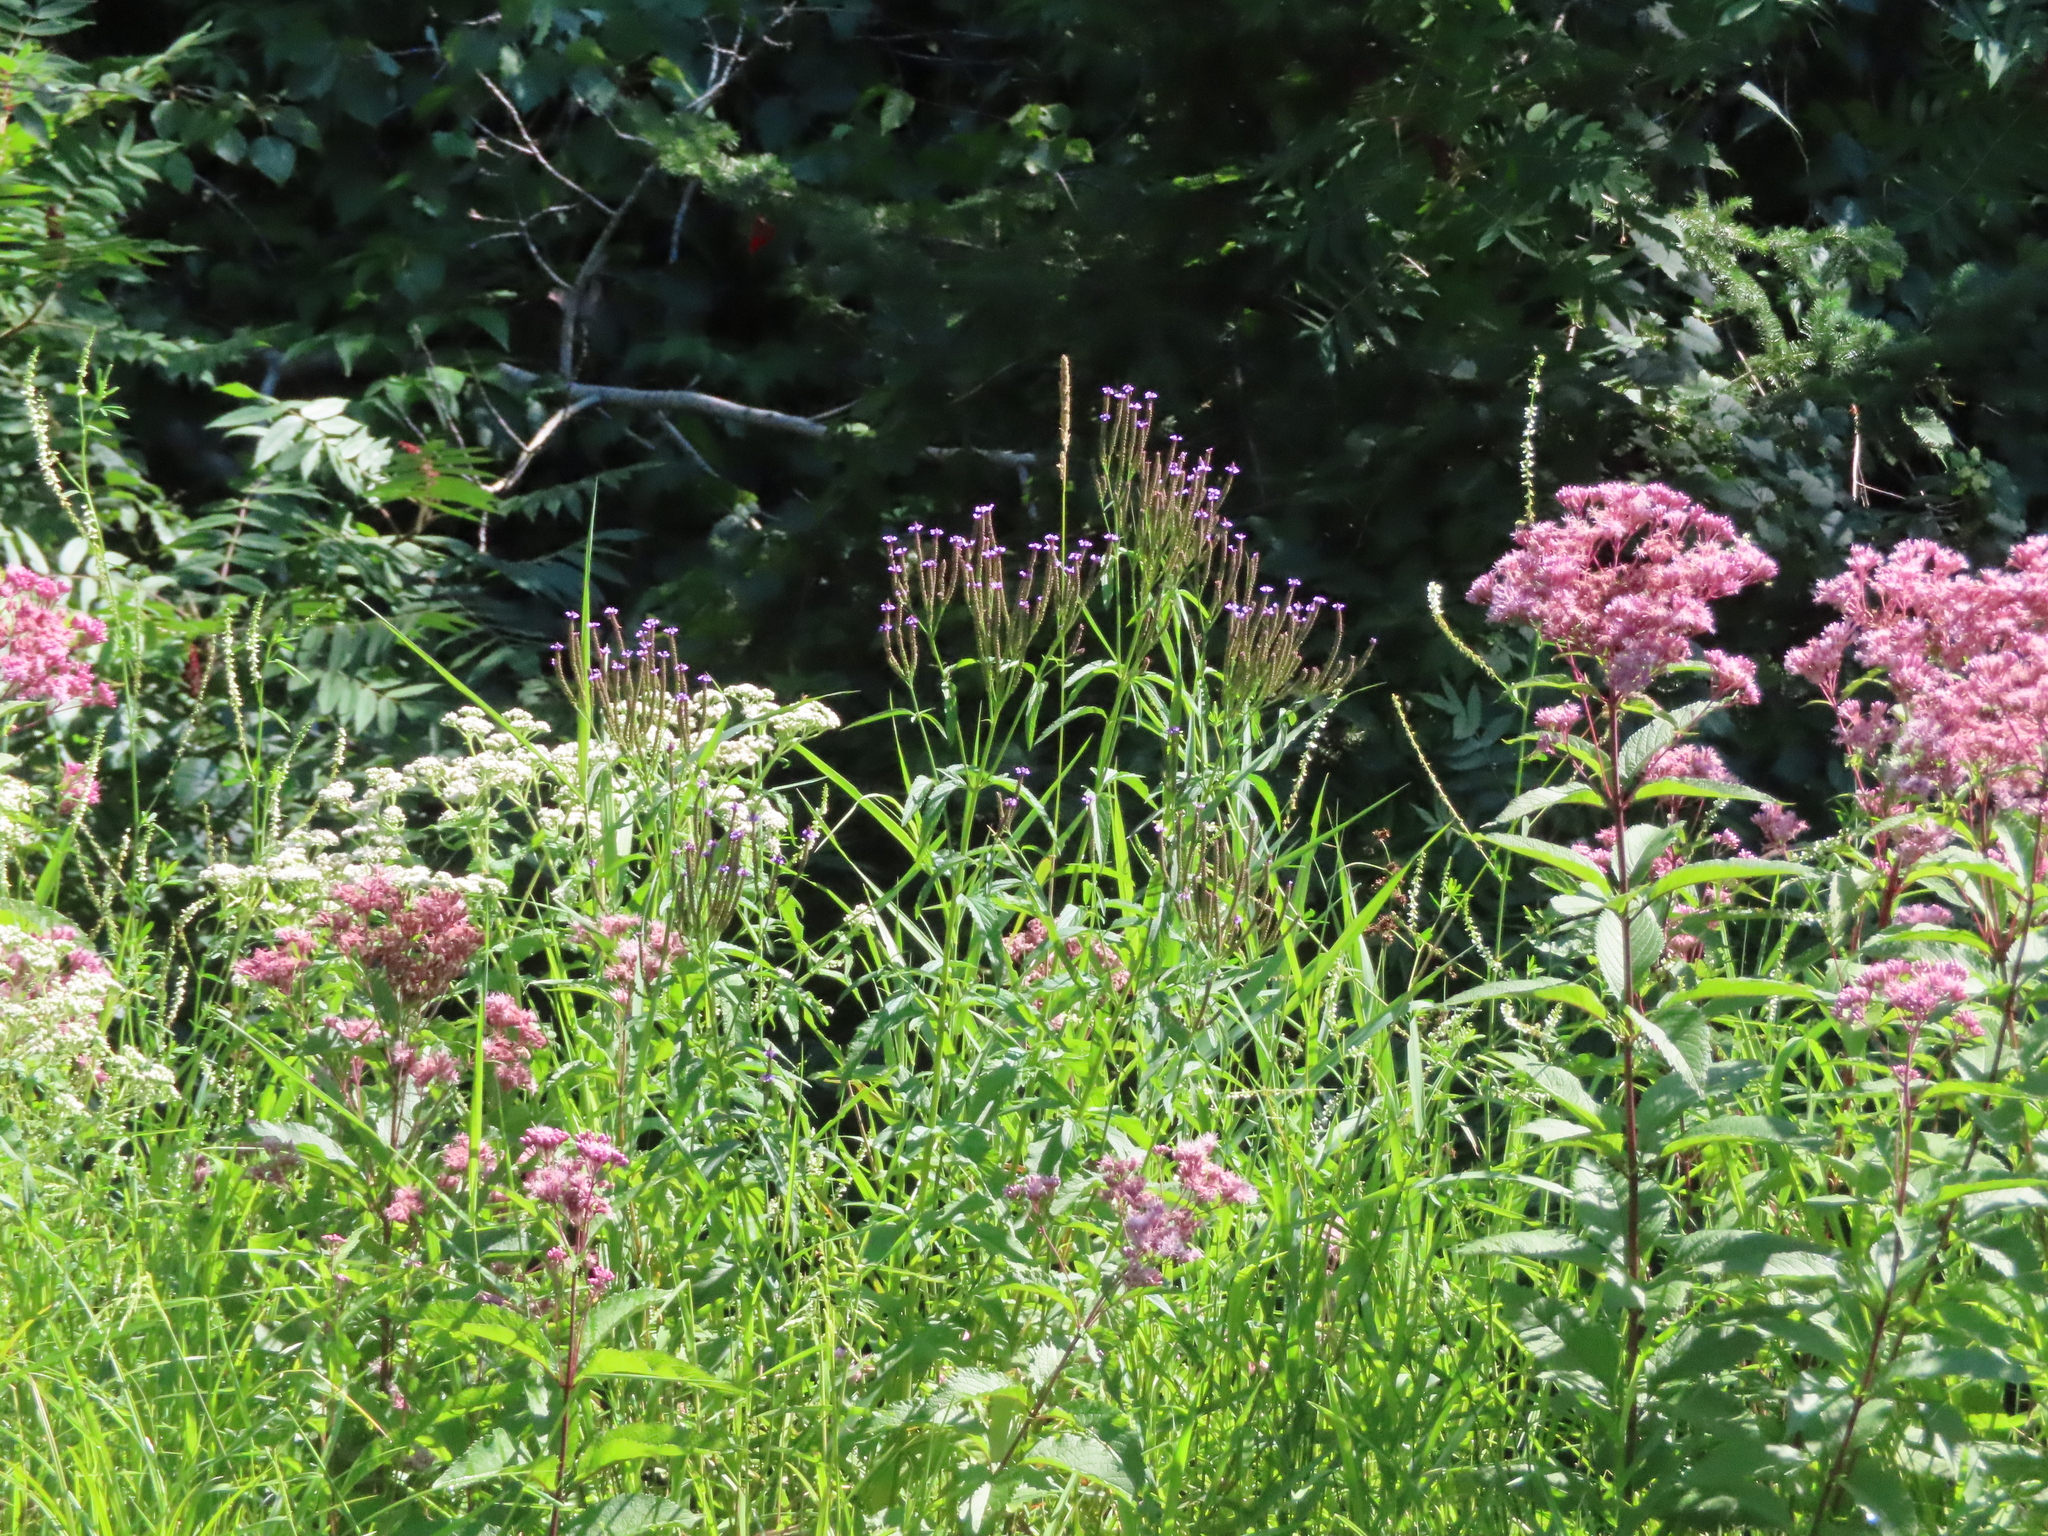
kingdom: Plantae
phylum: Tracheophyta
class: Magnoliopsida
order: Lamiales
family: Verbenaceae
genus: Verbena
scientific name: Verbena hastata
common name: American blue vervain
